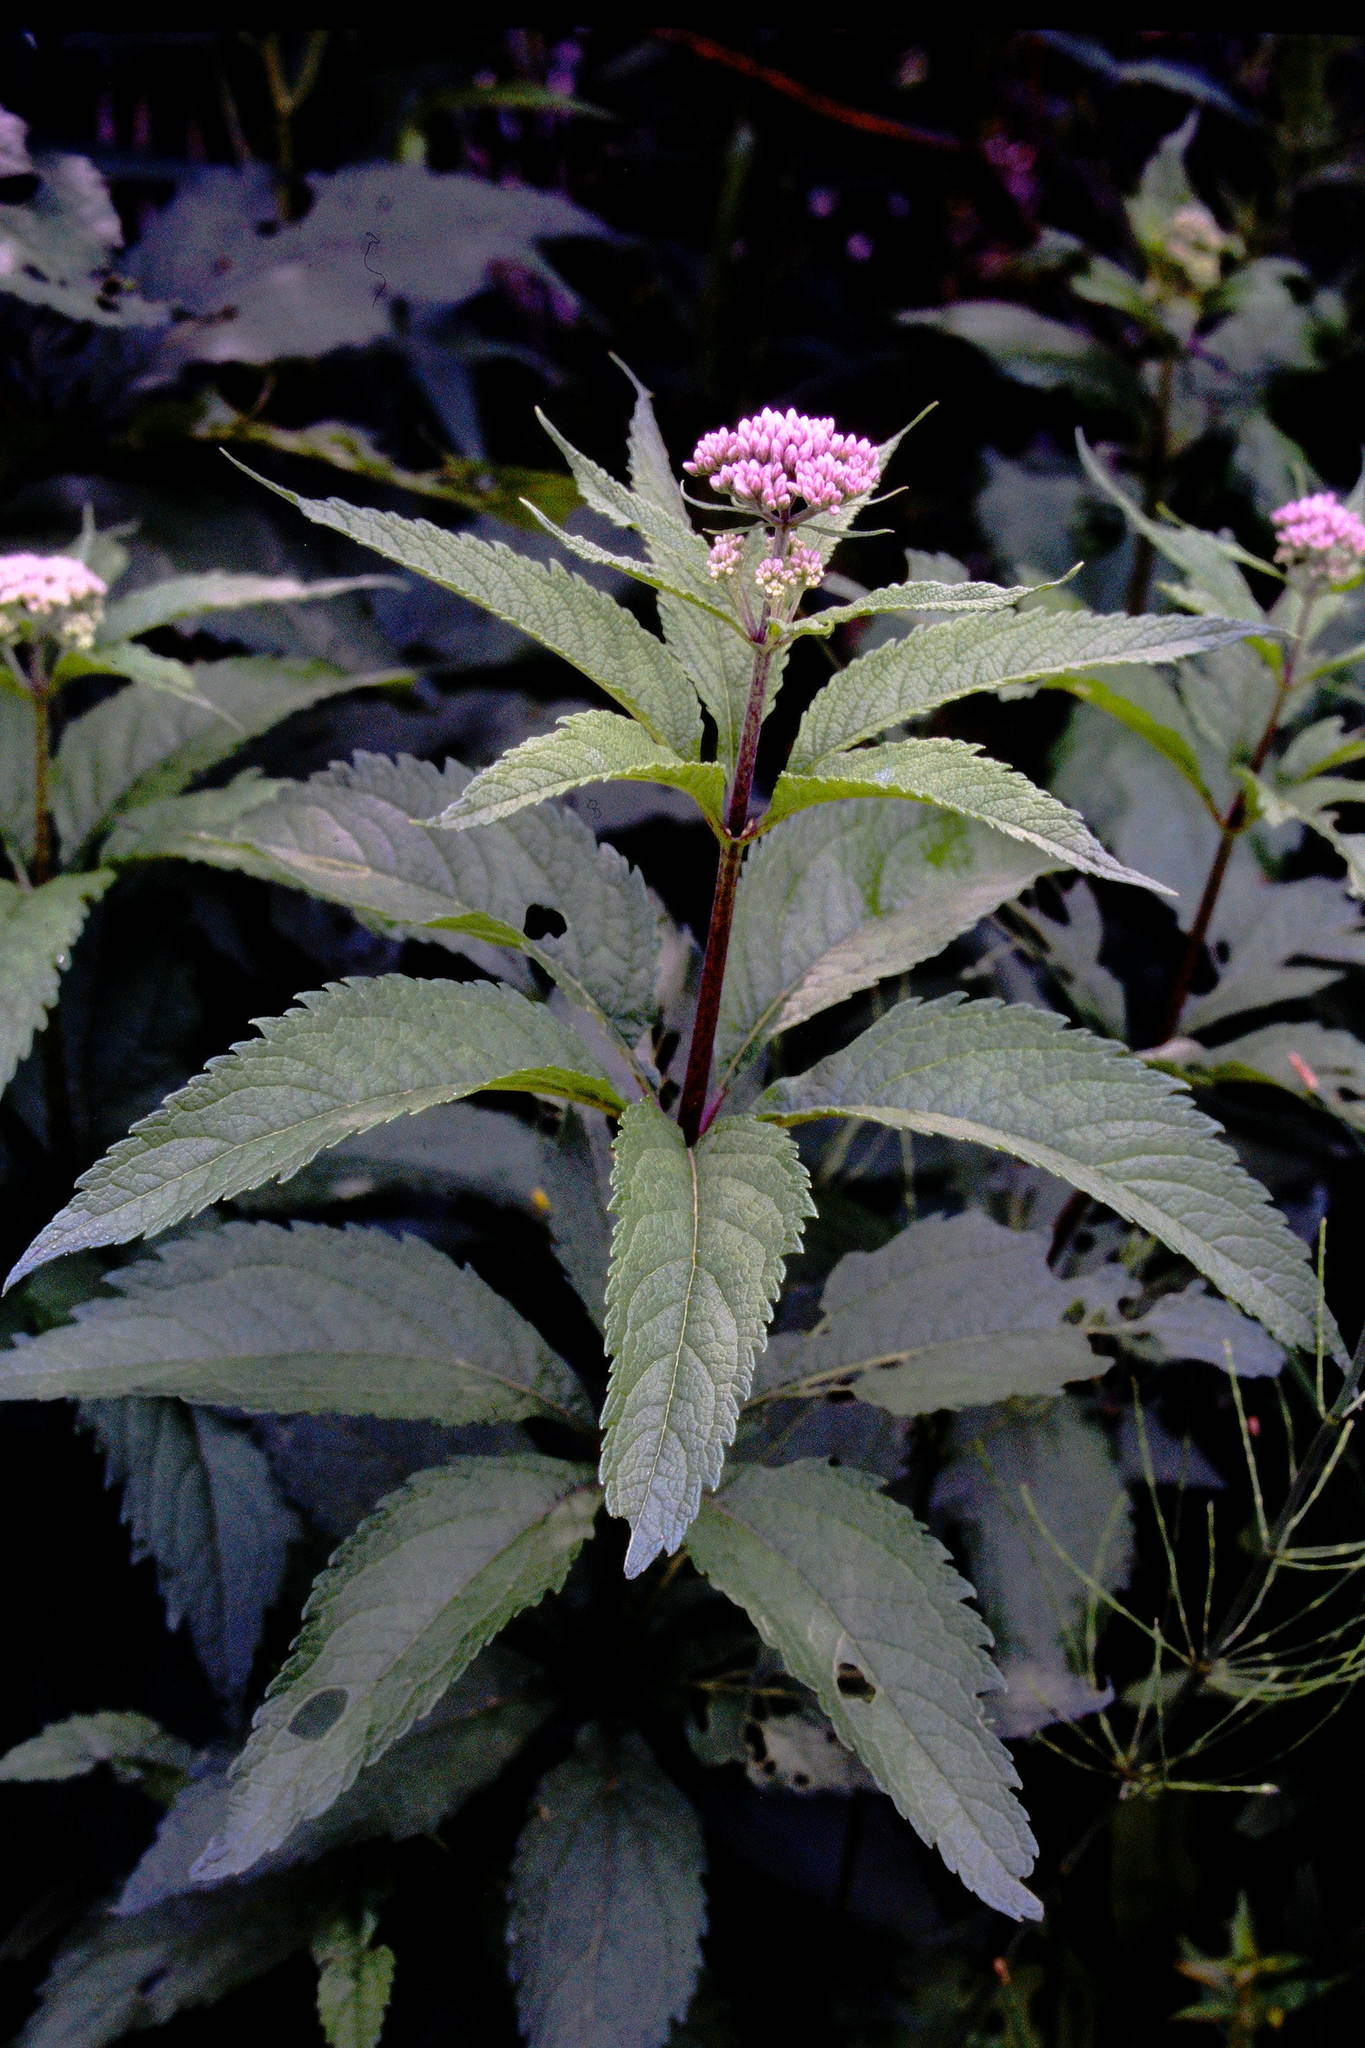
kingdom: Plantae
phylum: Tracheophyta
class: Magnoliopsida
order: Asterales
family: Asteraceae
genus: Eutrochium
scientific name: Eutrochium maculatum
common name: Spotted joe pye weed
